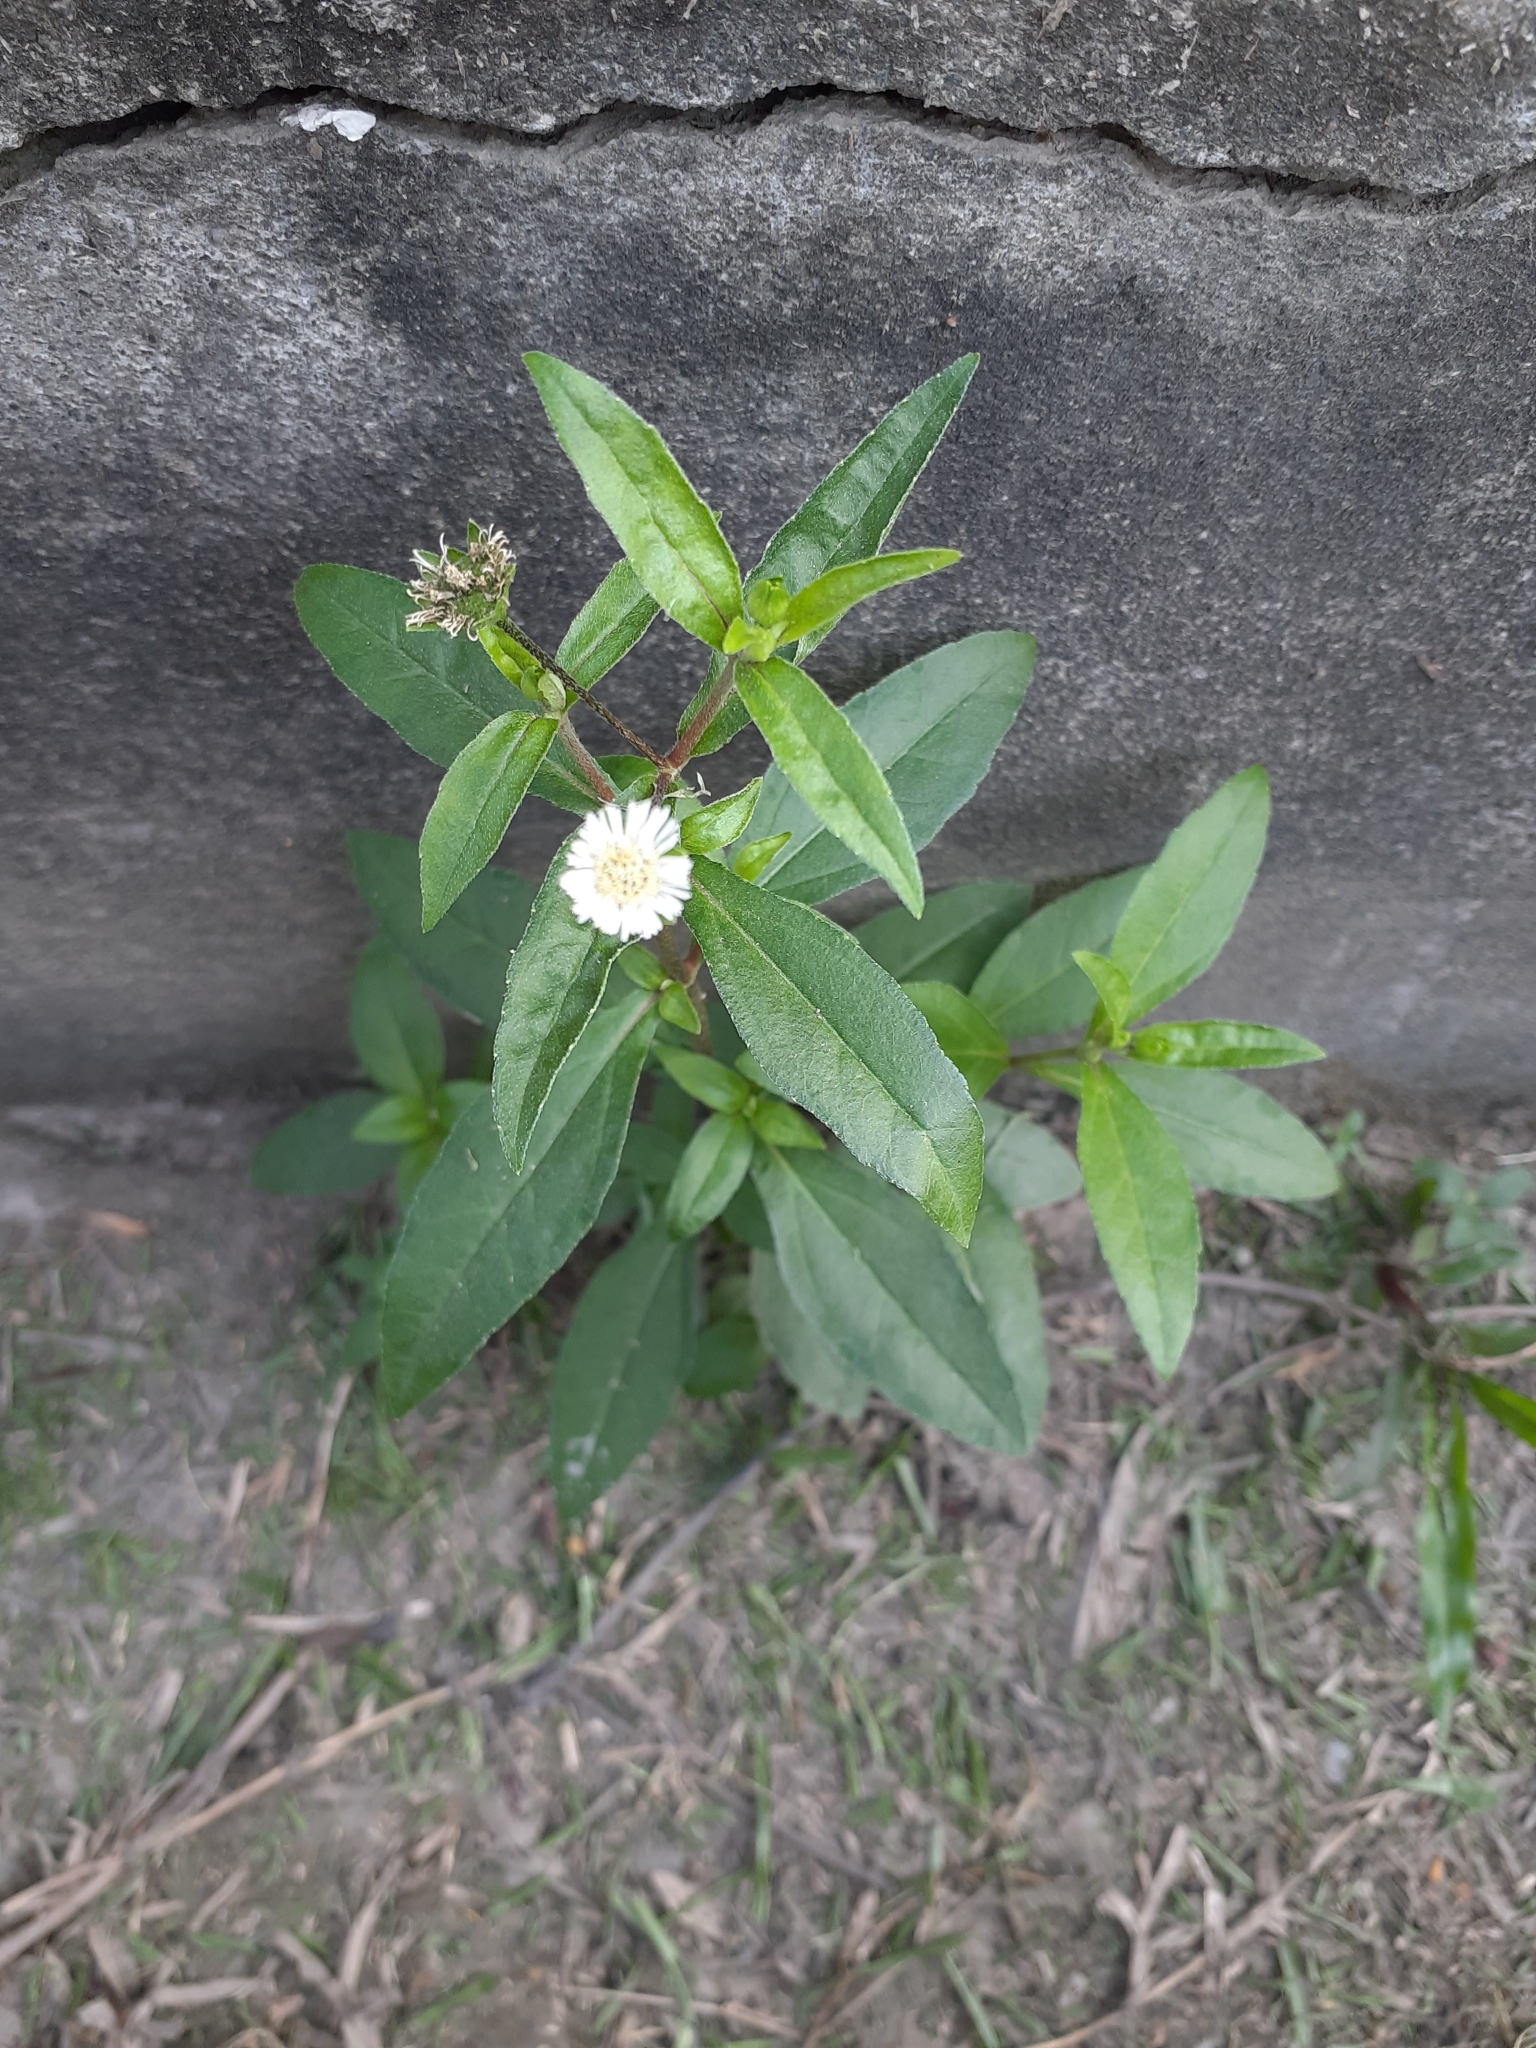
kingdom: Plantae
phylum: Tracheophyta
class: Magnoliopsida
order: Asterales
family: Asteraceae
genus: Eclipta
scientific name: Eclipta prostrata
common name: False daisy
